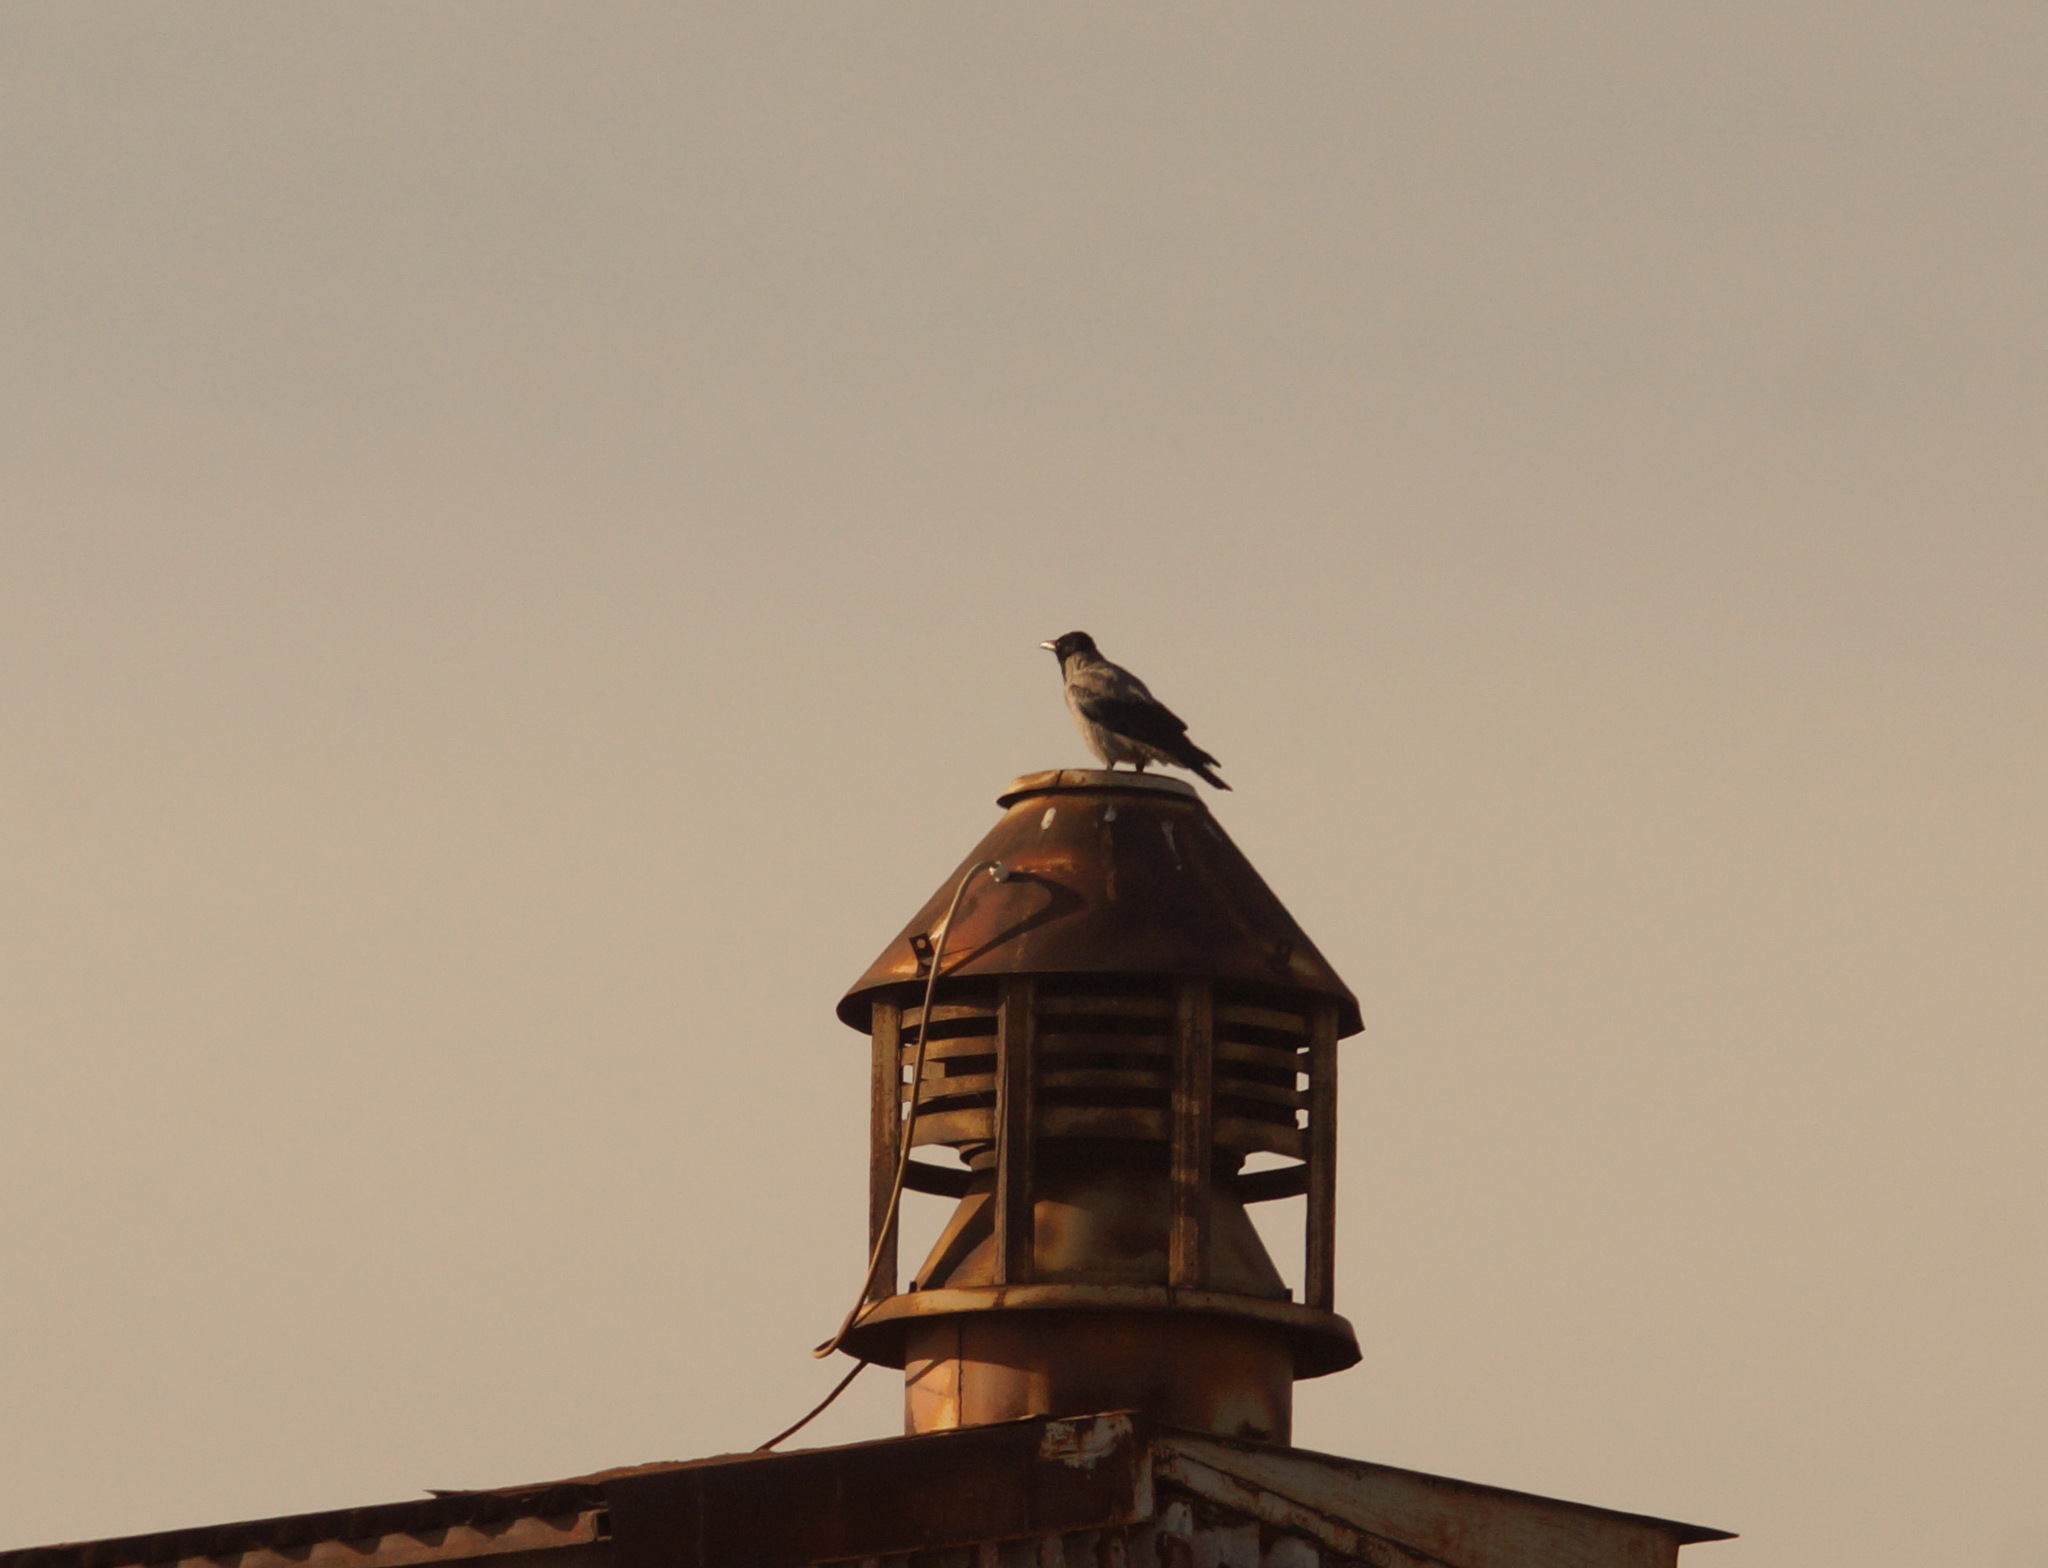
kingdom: Animalia
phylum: Chordata
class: Aves
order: Passeriformes
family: Corvidae
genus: Corvus
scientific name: Corvus cornix
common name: Hooded crow
